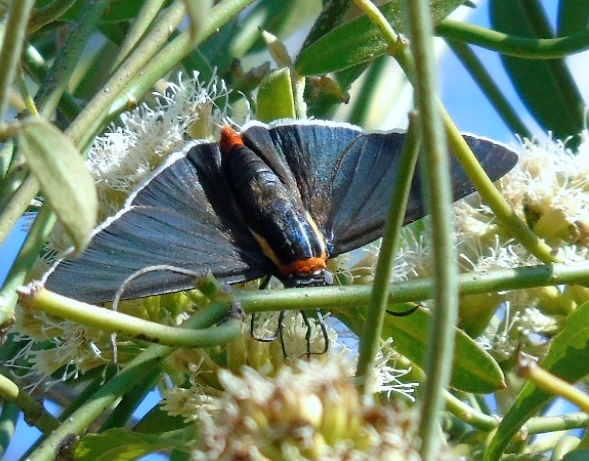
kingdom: Animalia
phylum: Arthropoda
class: Insecta
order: Lepidoptera
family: Hesperiidae
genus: Elbella
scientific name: Elbella scylla
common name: Scylla firetip
